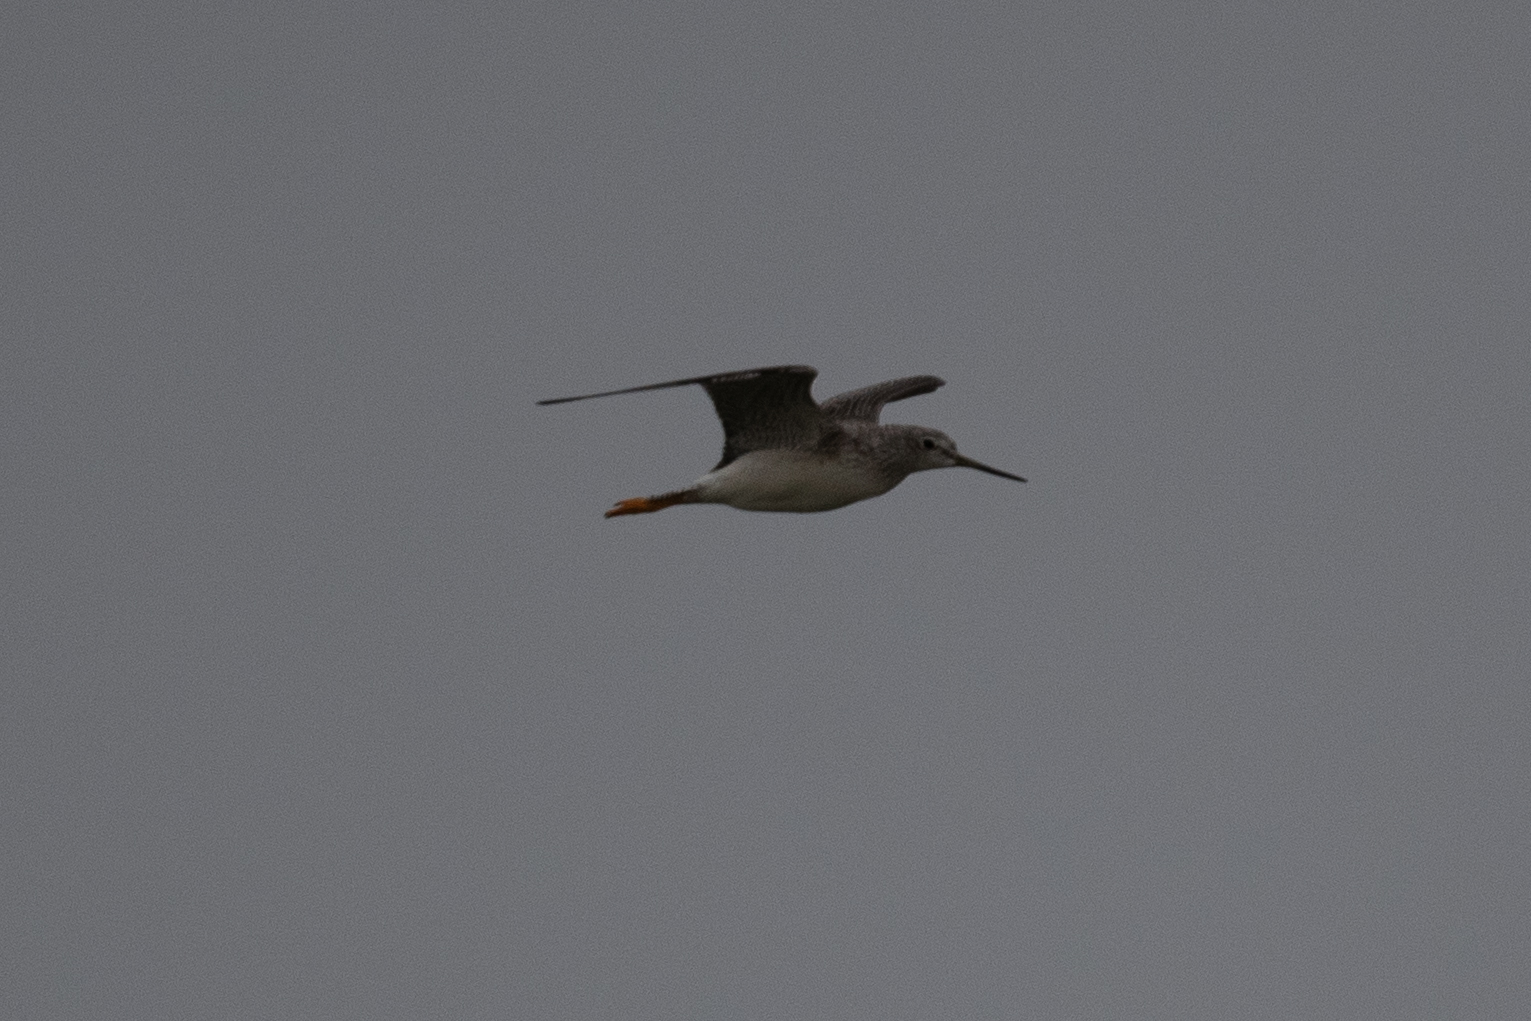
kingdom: Animalia
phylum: Chordata
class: Aves
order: Charadriiformes
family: Scolopacidae
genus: Tringa
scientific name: Tringa melanoleuca
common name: Greater yellowlegs
